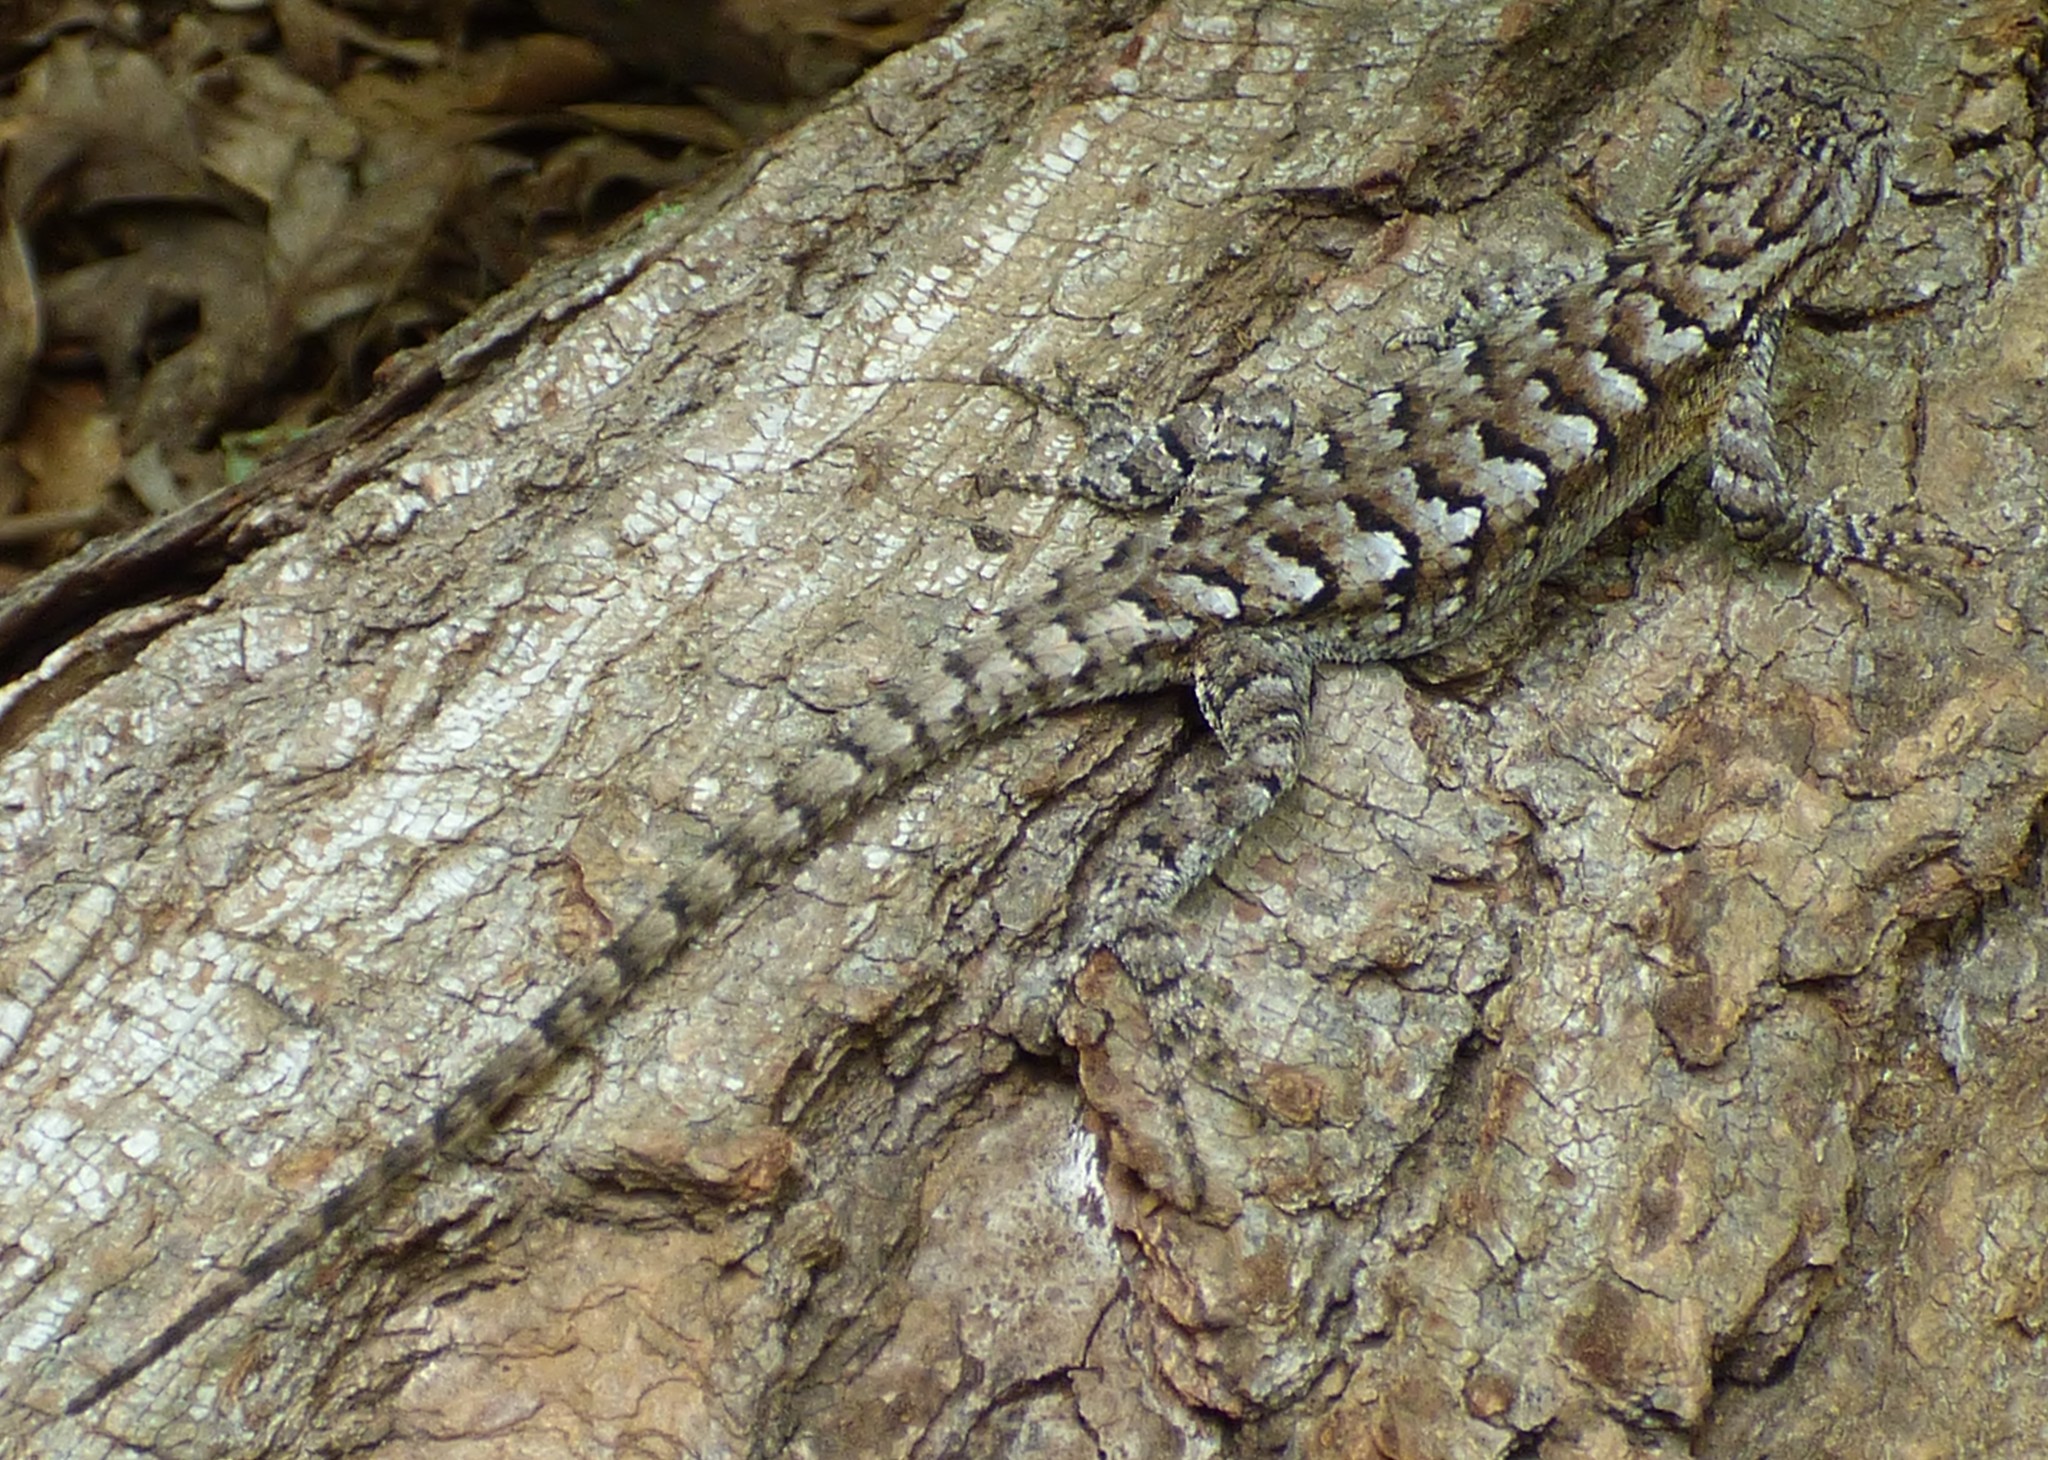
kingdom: Animalia
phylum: Chordata
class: Squamata
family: Phrynosomatidae
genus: Sceloporus
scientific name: Sceloporus undulatus
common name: Eastern fence lizard
